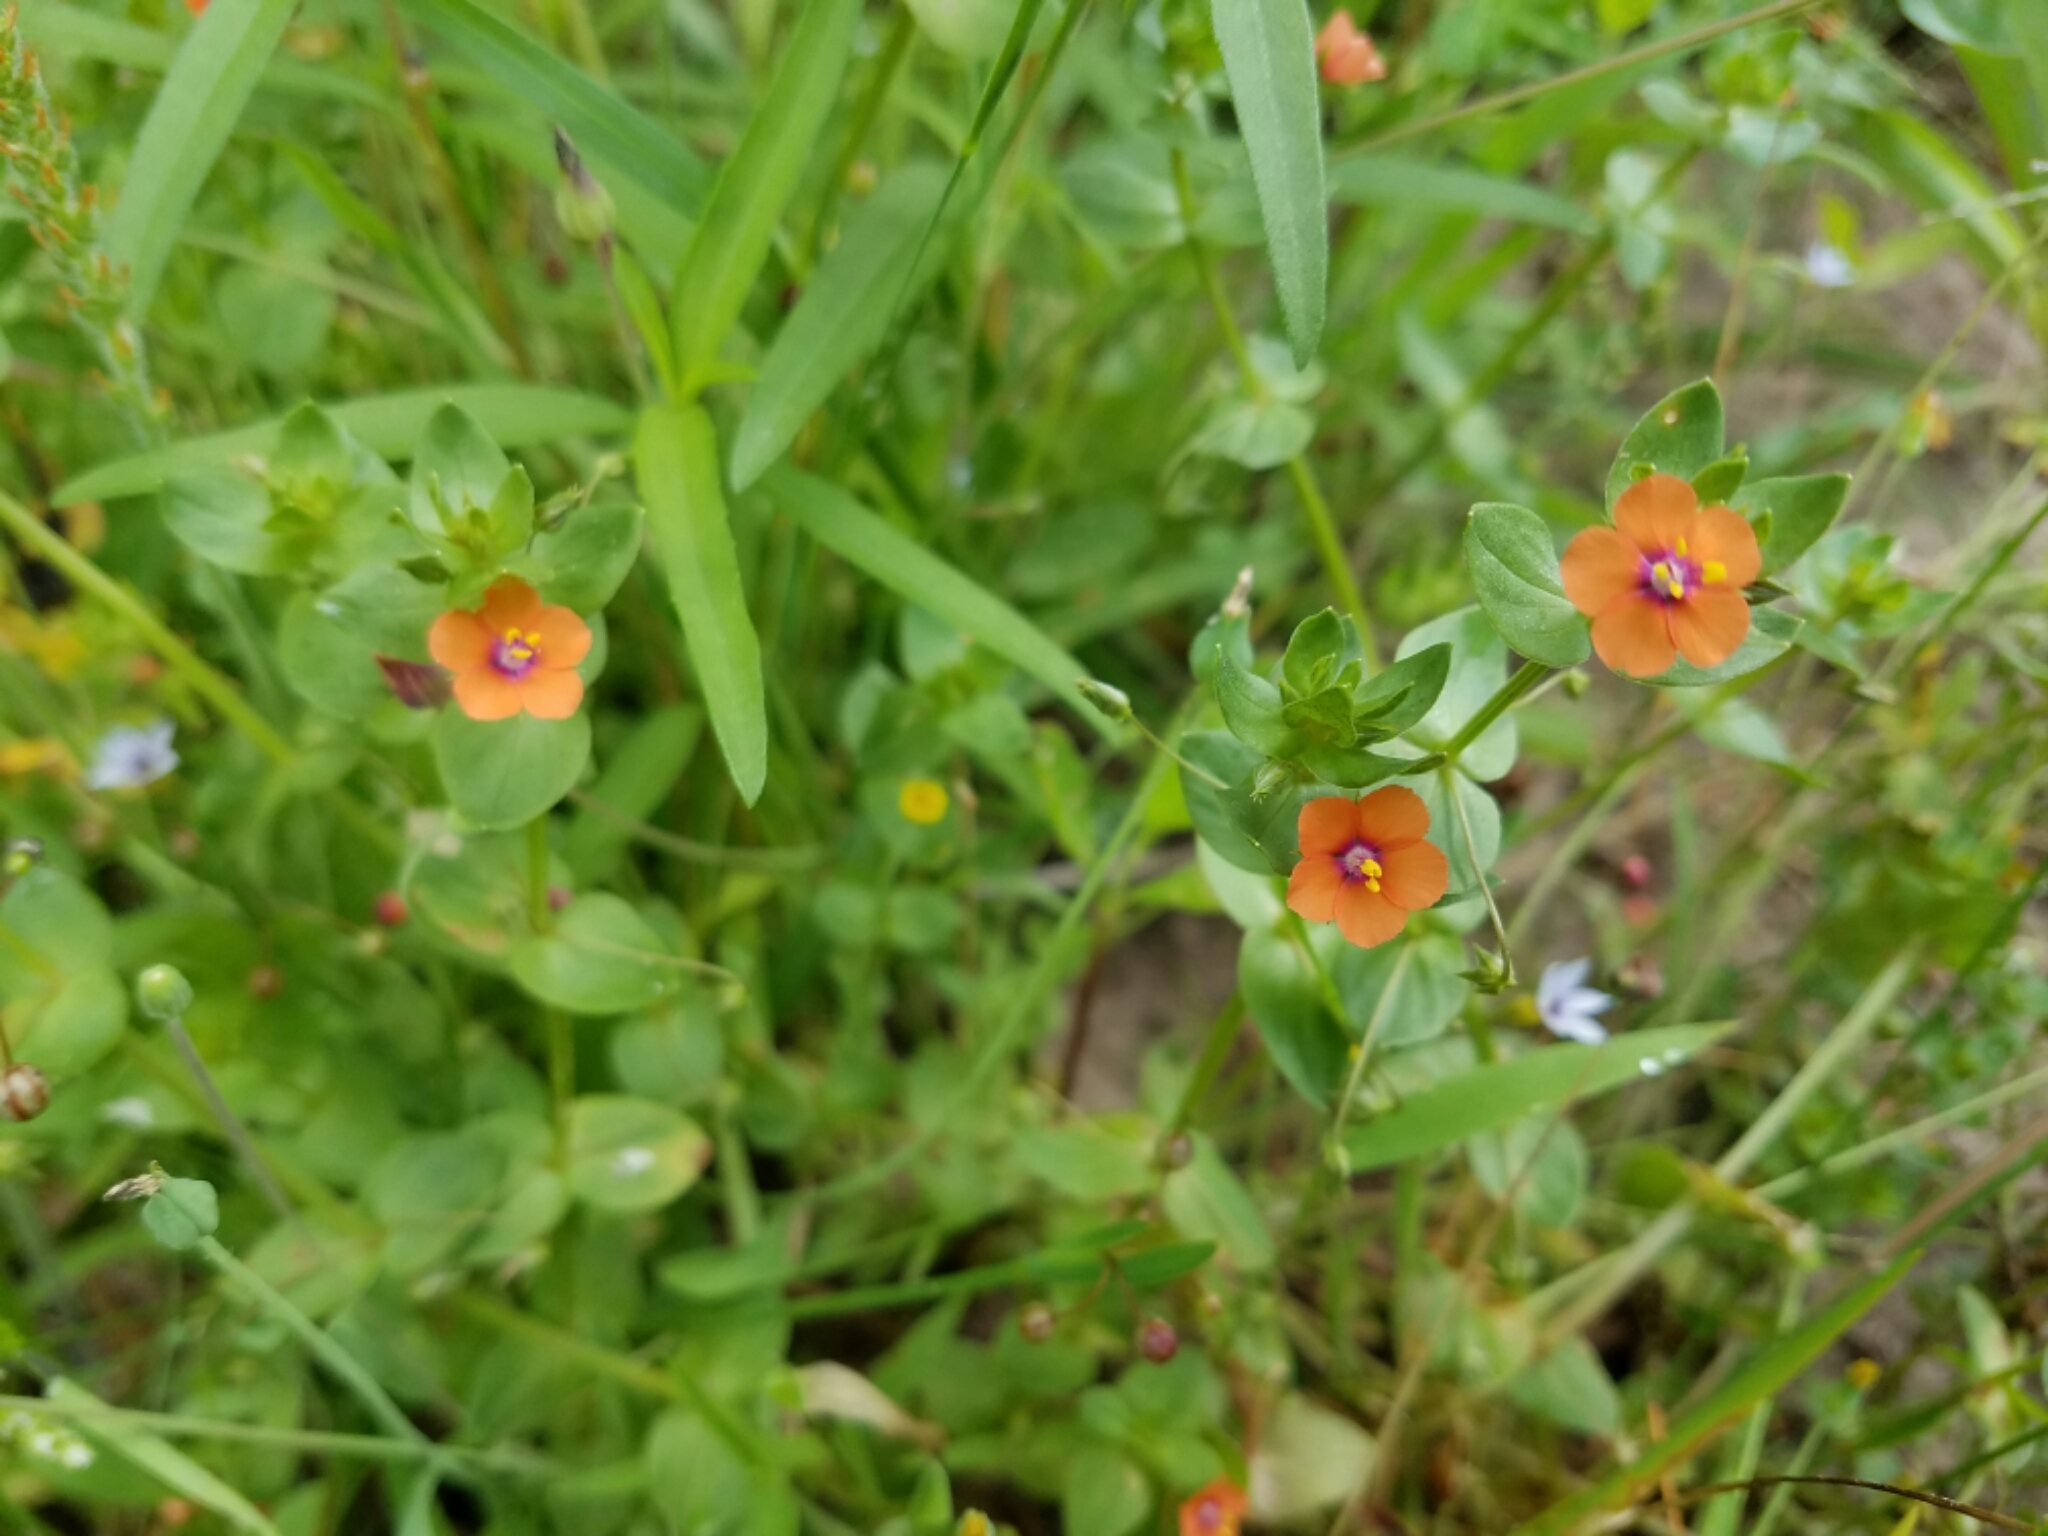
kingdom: Plantae
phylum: Tracheophyta
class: Magnoliopsida
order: Ericales
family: Primulaceae
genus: Lysimachia
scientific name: Lysimachia arvensis
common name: Scarlet pimpernel
